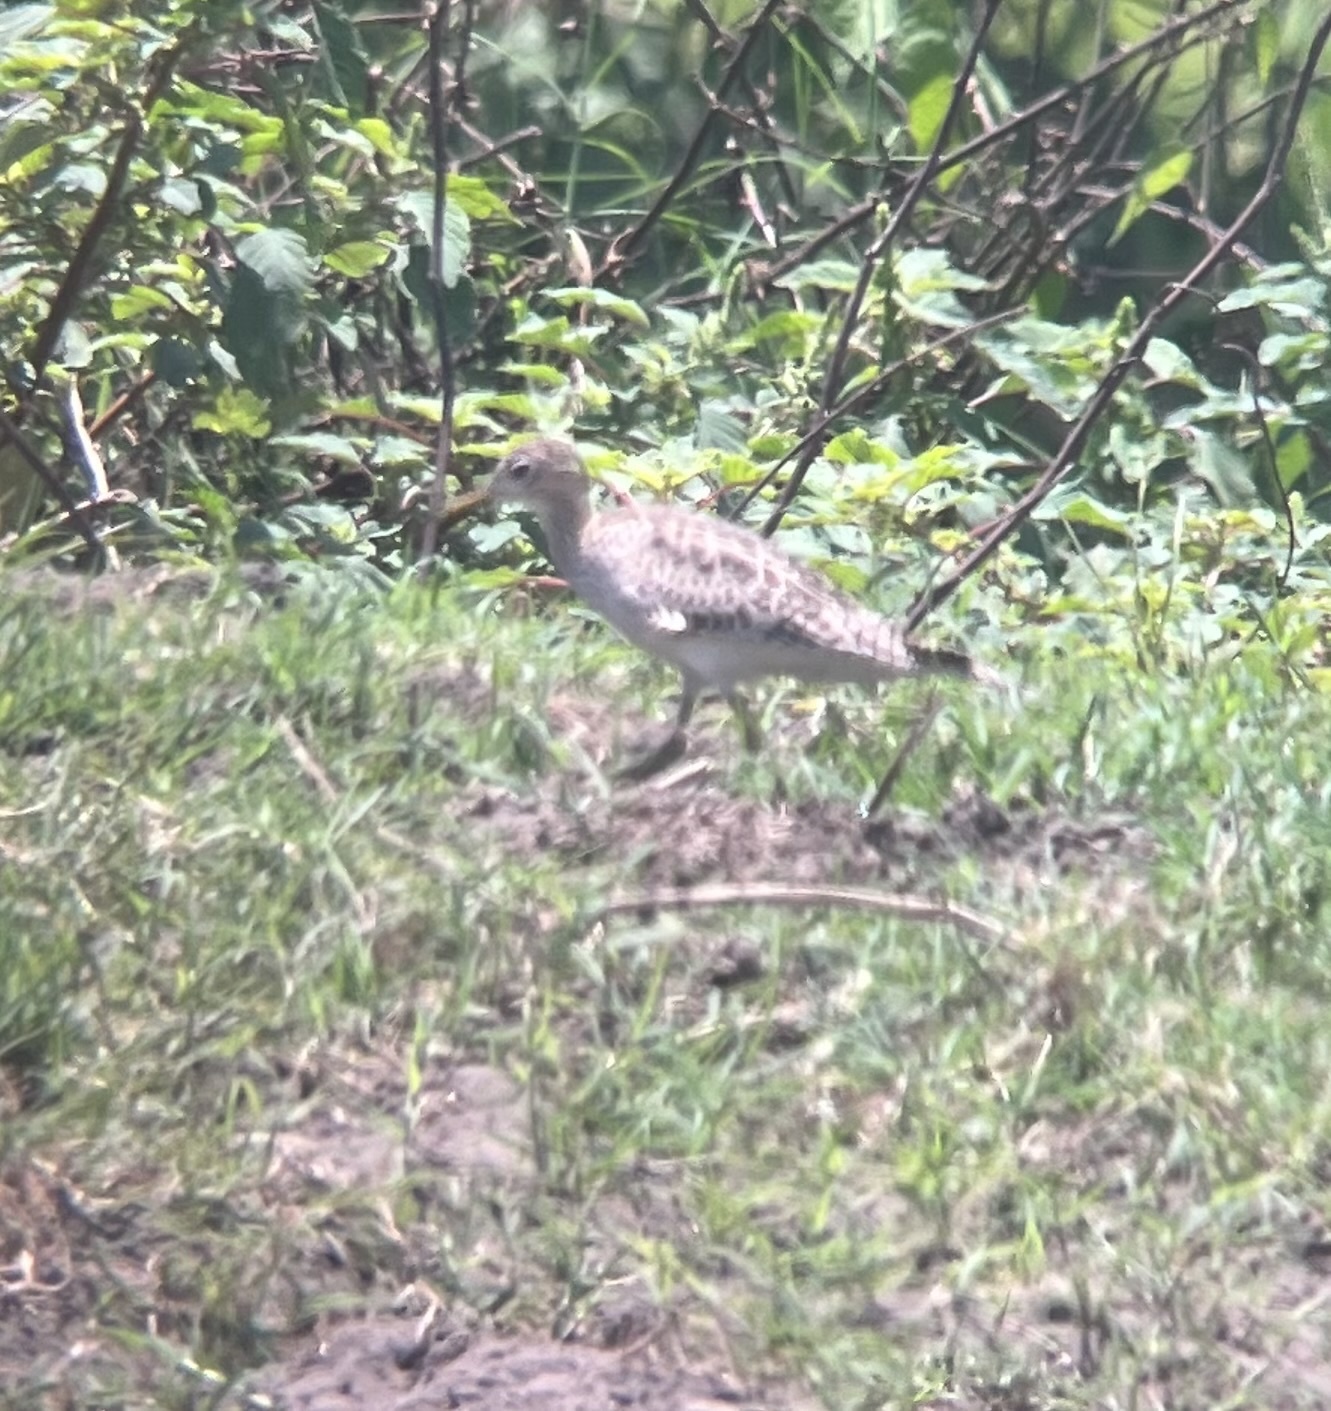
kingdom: Animalia
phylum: Chordata
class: Aves
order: Charadriiformes
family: Scolopacidae
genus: Bartramia
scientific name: Bartramia longicauda
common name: Upland sandpiper
